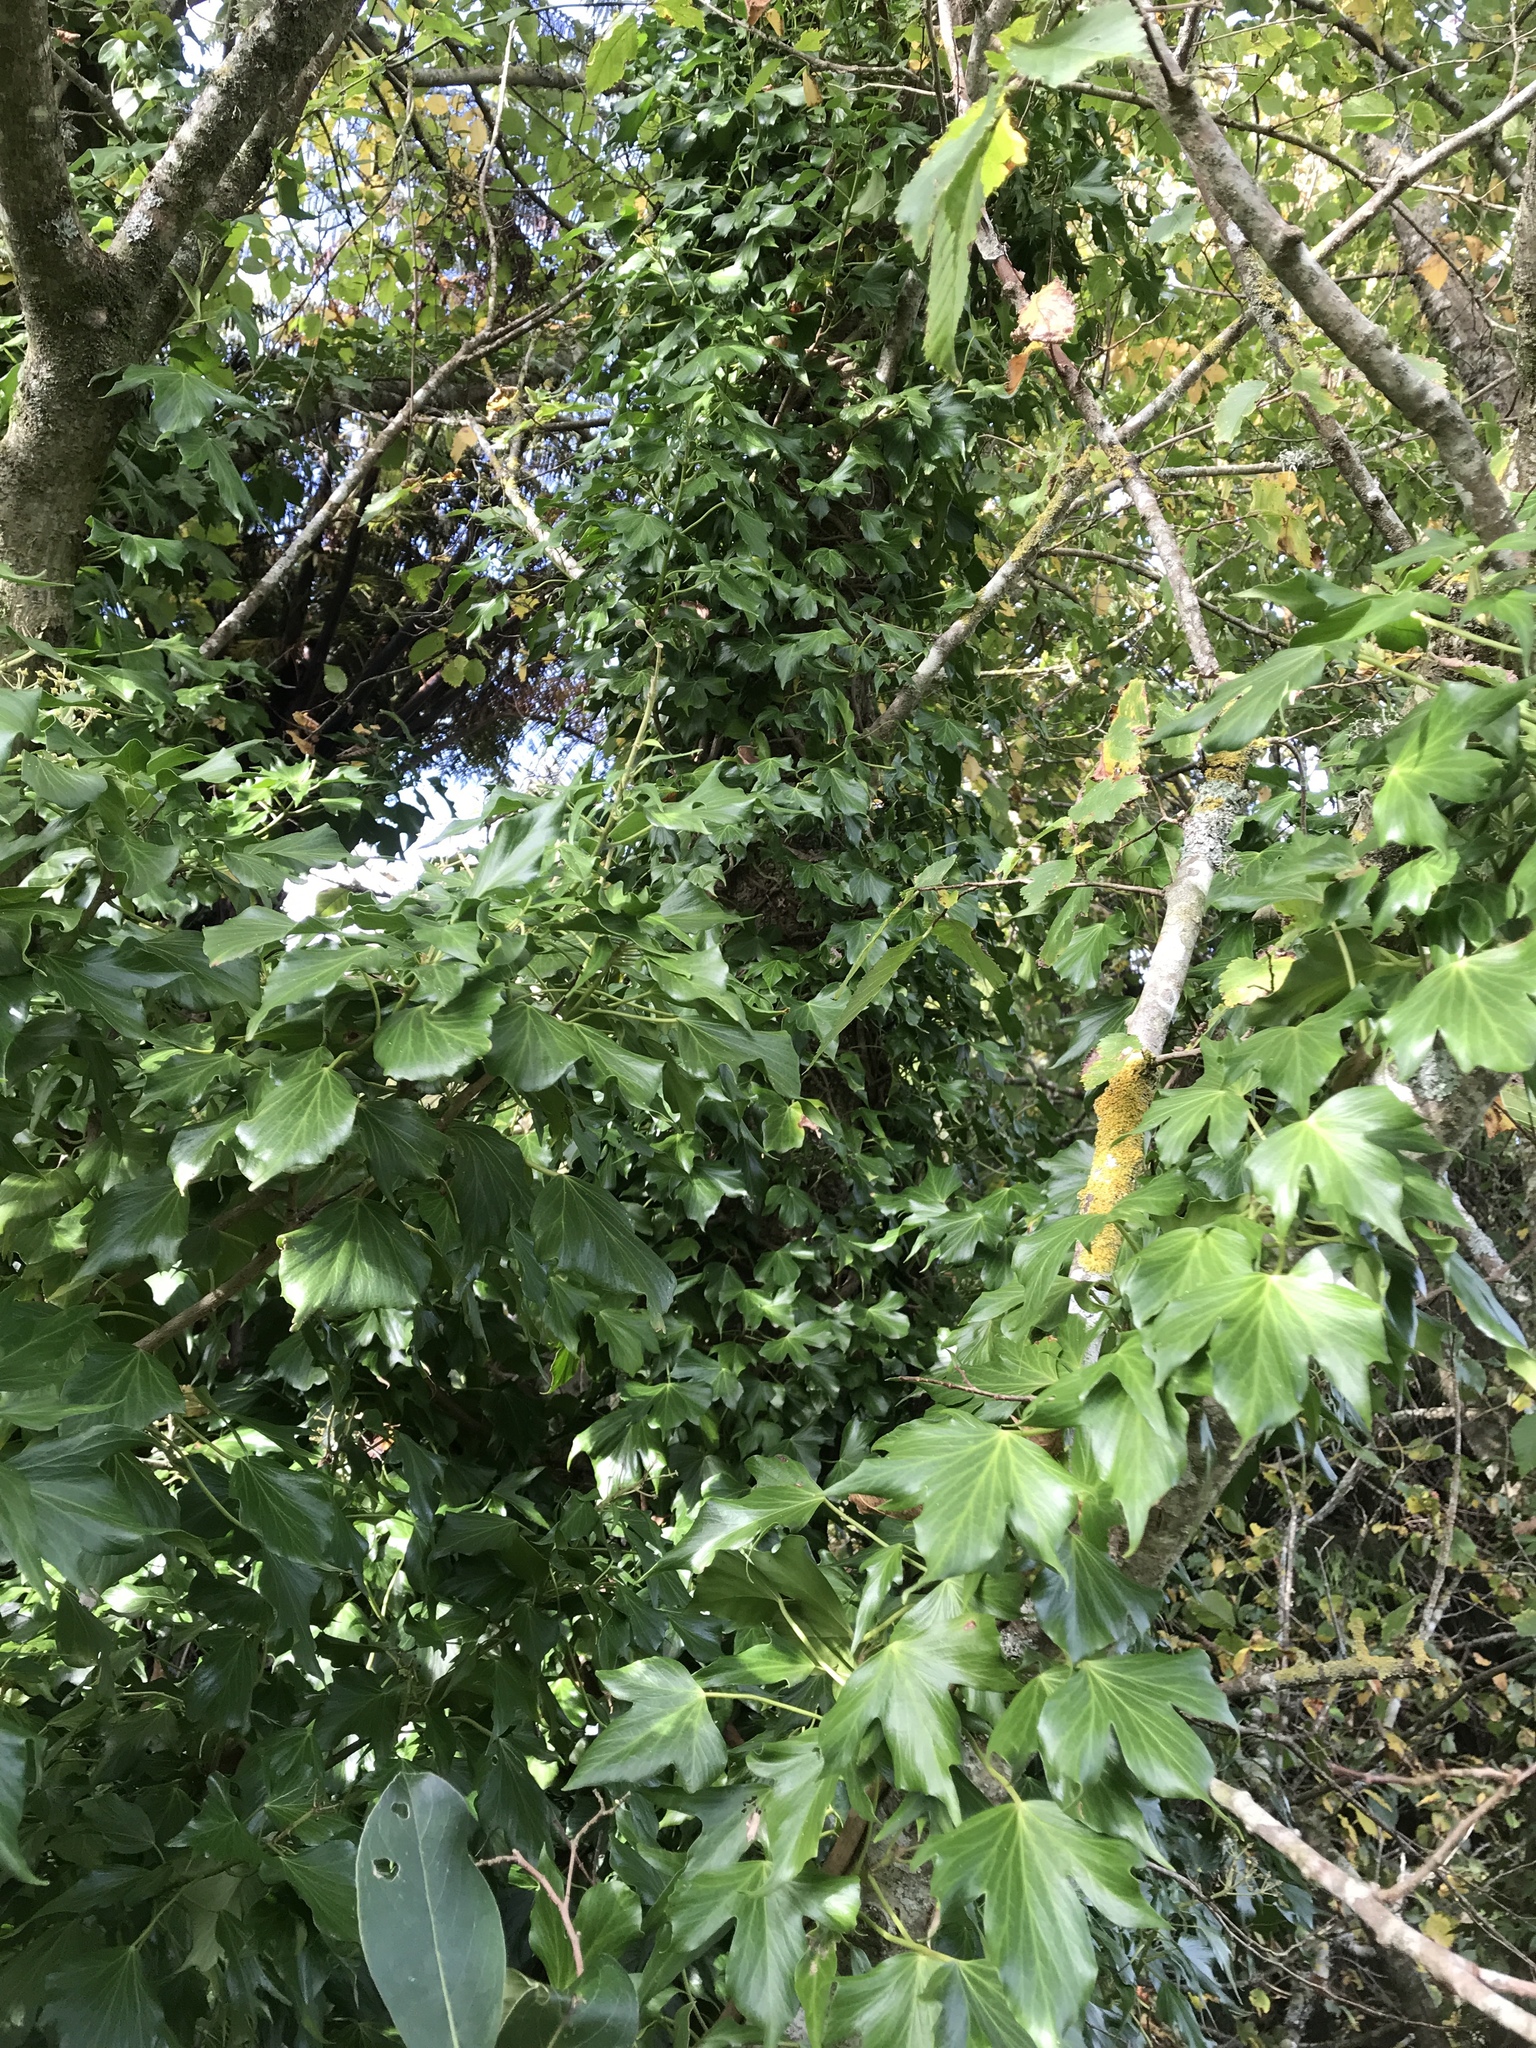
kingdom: Plantae
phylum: Tracheophyta
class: Magnoliopsida
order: Apiales
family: Araliaceae
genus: Hedera
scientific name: Hedera helix
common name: Ivy
